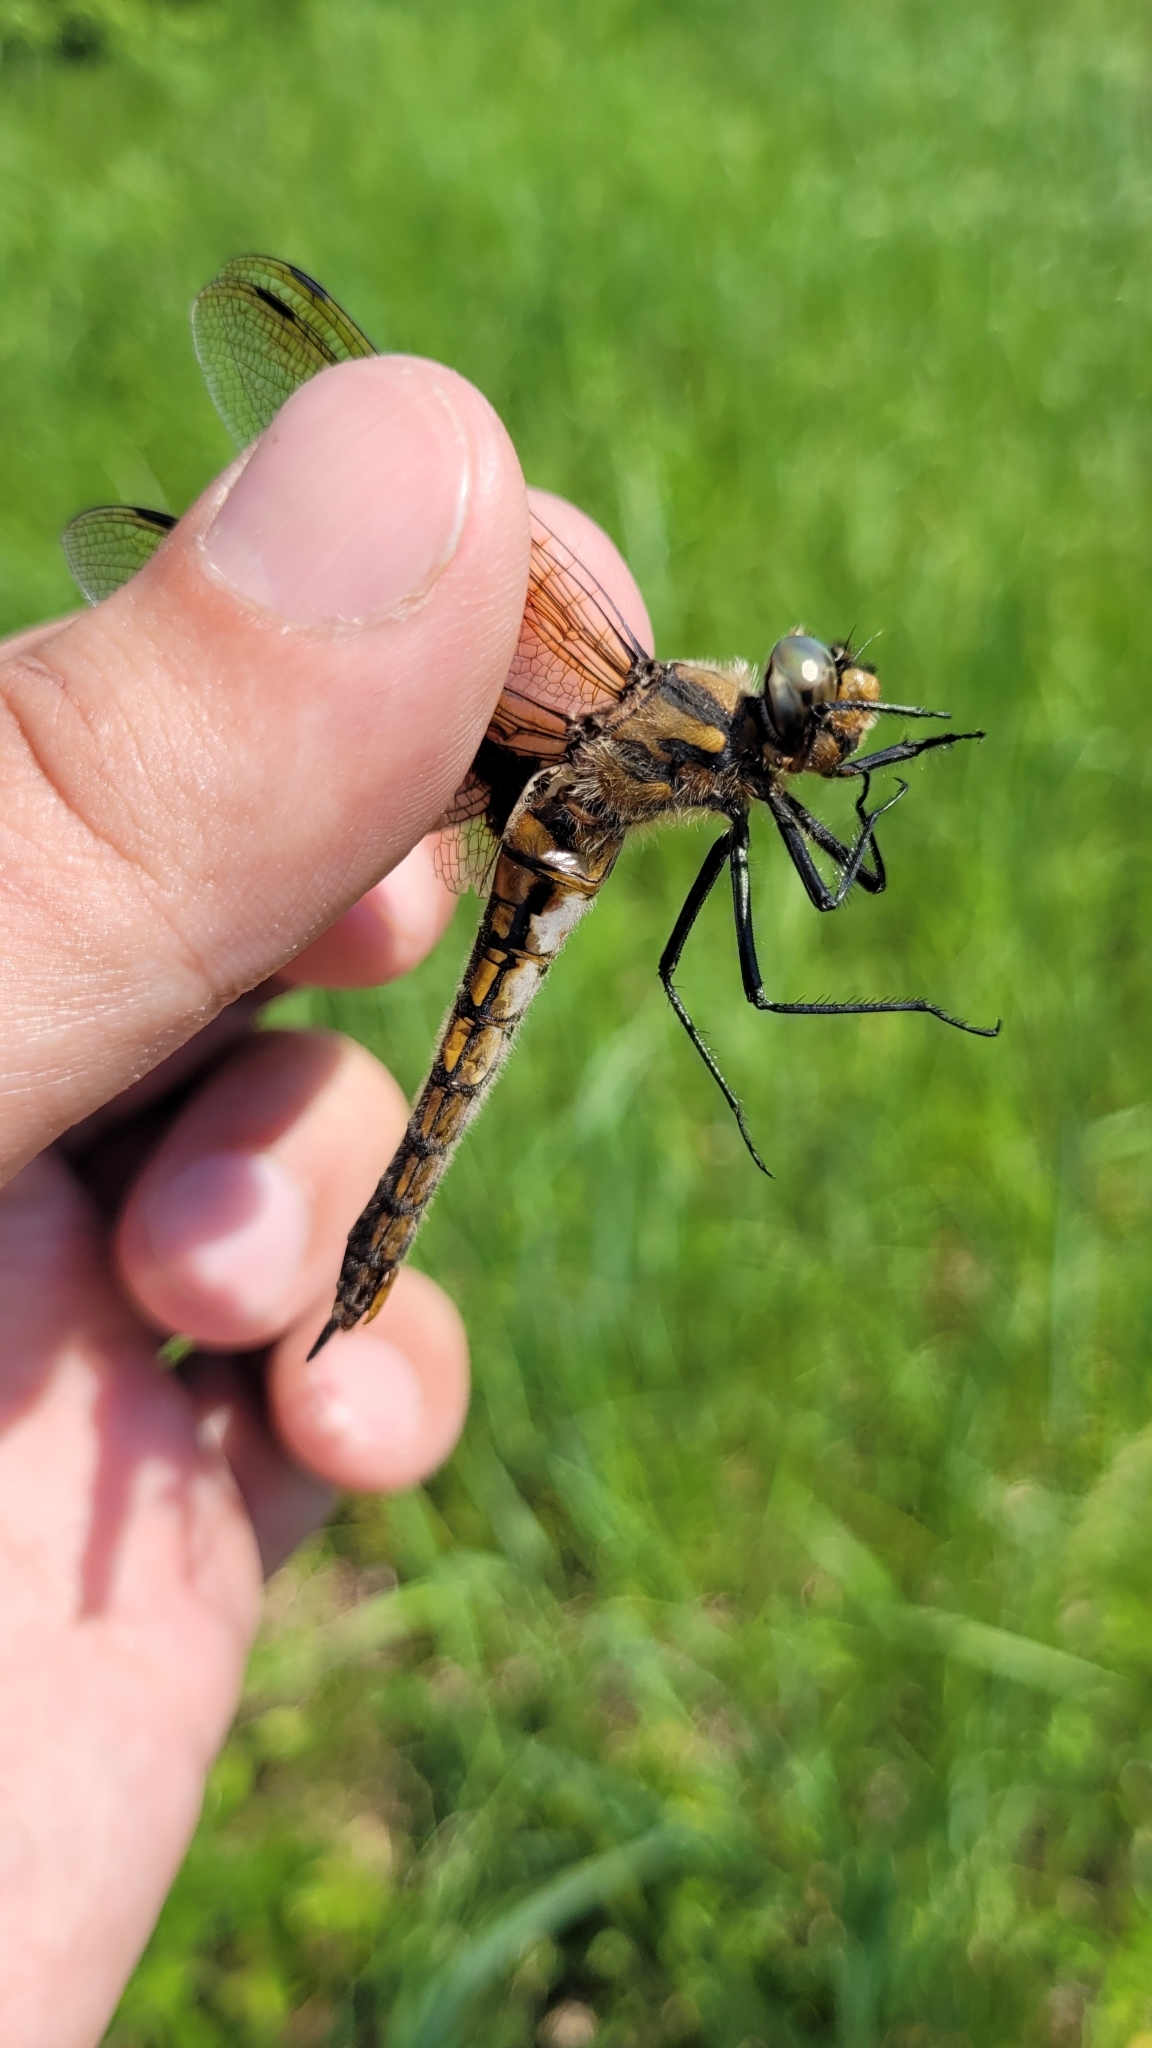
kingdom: Animalia
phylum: Arthropoda
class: Insecta
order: Odonata
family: Corduliidae
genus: Epitheca
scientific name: Epitheca bimaculata
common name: Eurasian baskettail
